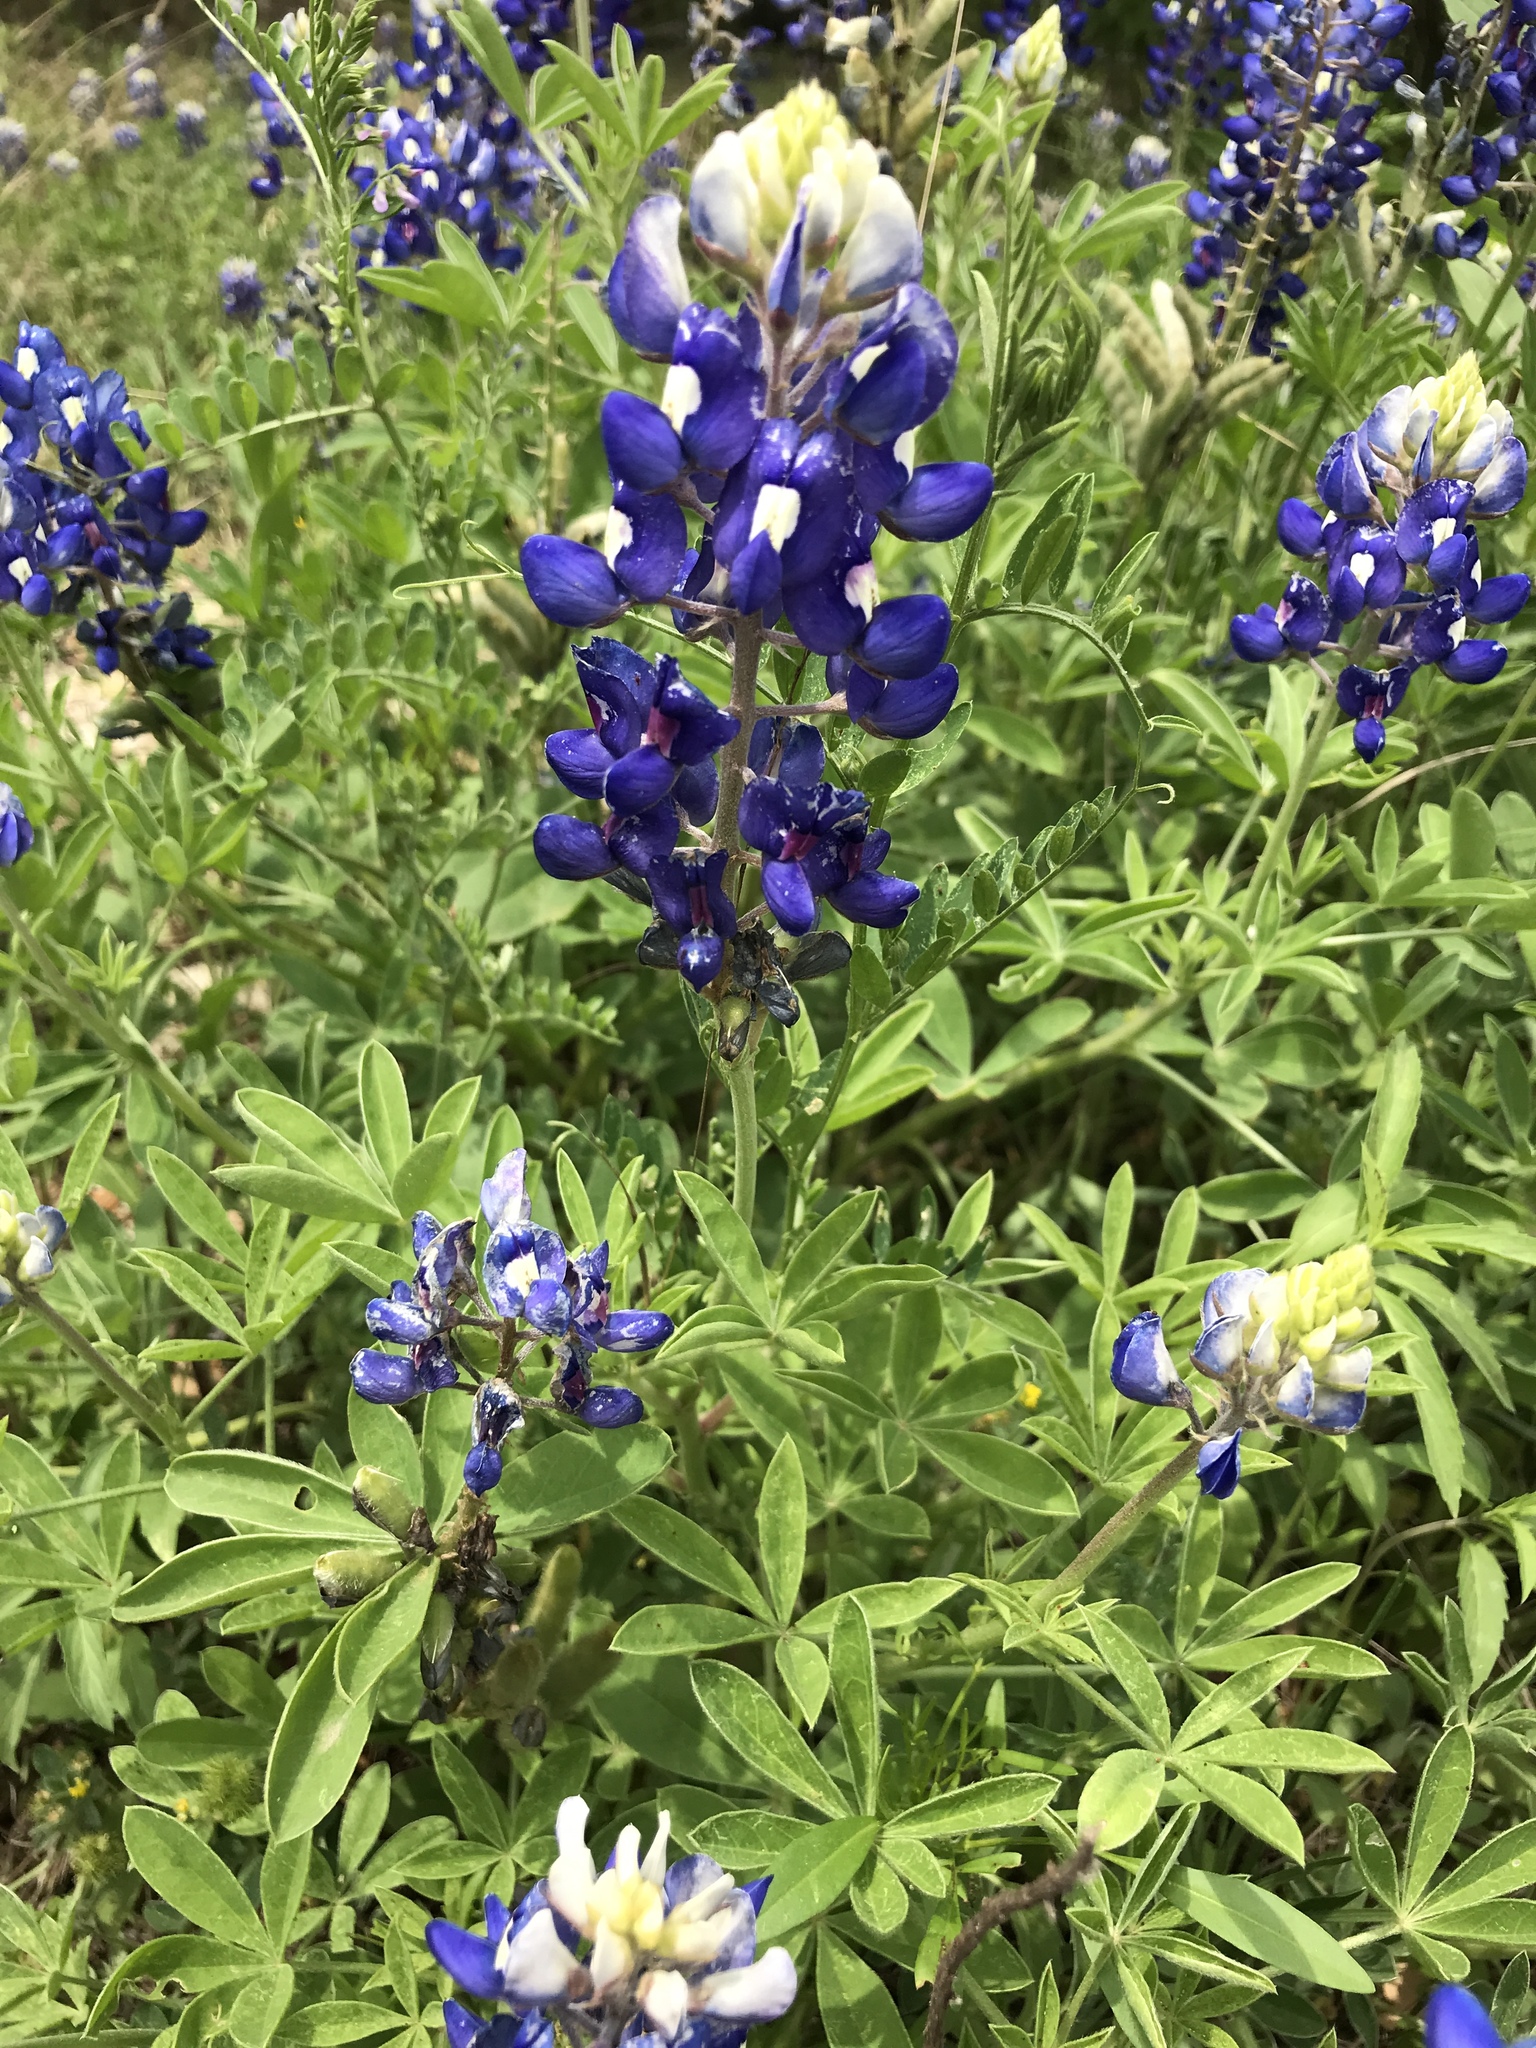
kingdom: Plantae
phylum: Tracheophyta
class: Magnoliopsida
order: Fabales
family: Fabaceae
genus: Lupinus
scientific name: Lupinus texensis
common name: Texas bluebonnet
